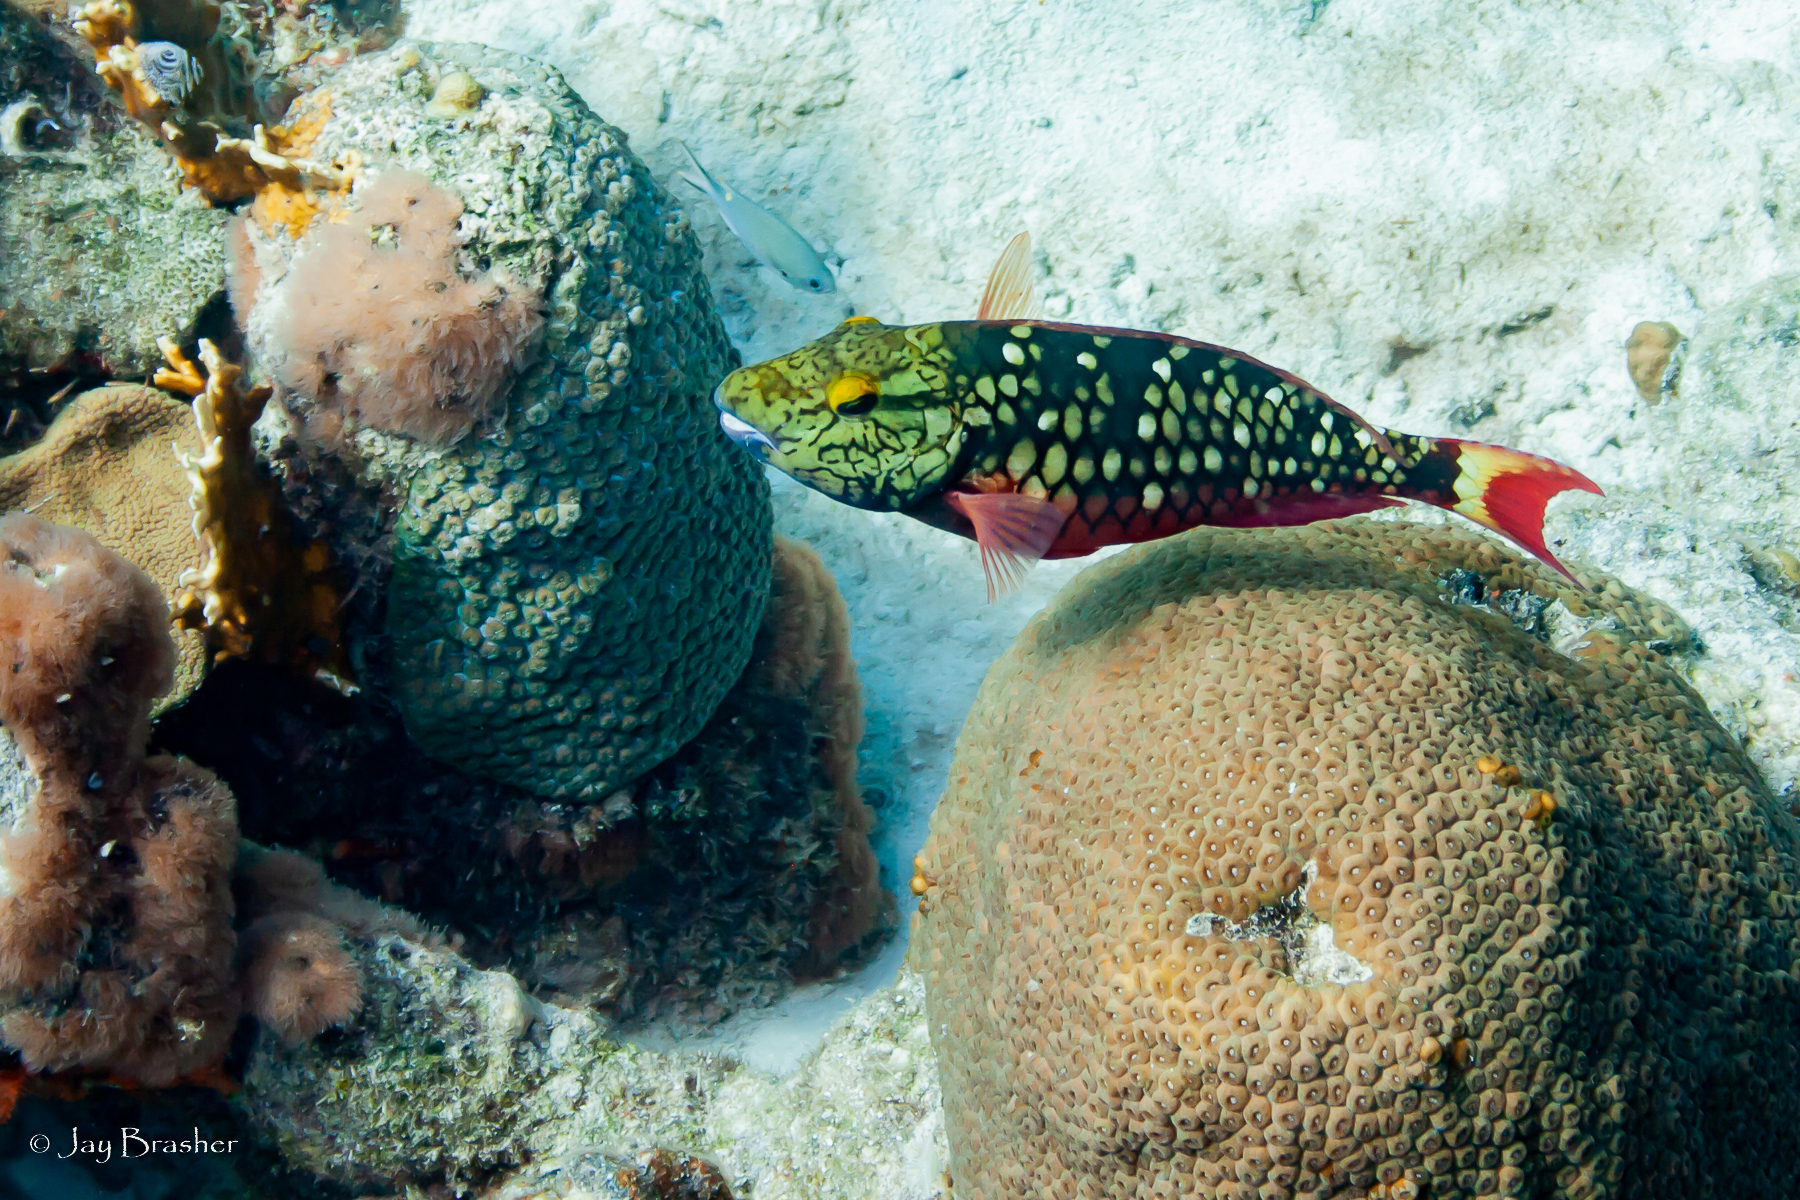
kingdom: Animalia
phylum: Chordata
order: Perciformes
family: Scaridae
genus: Sparisoma
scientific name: Sparisoma viride
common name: Stoplight parrotfish
